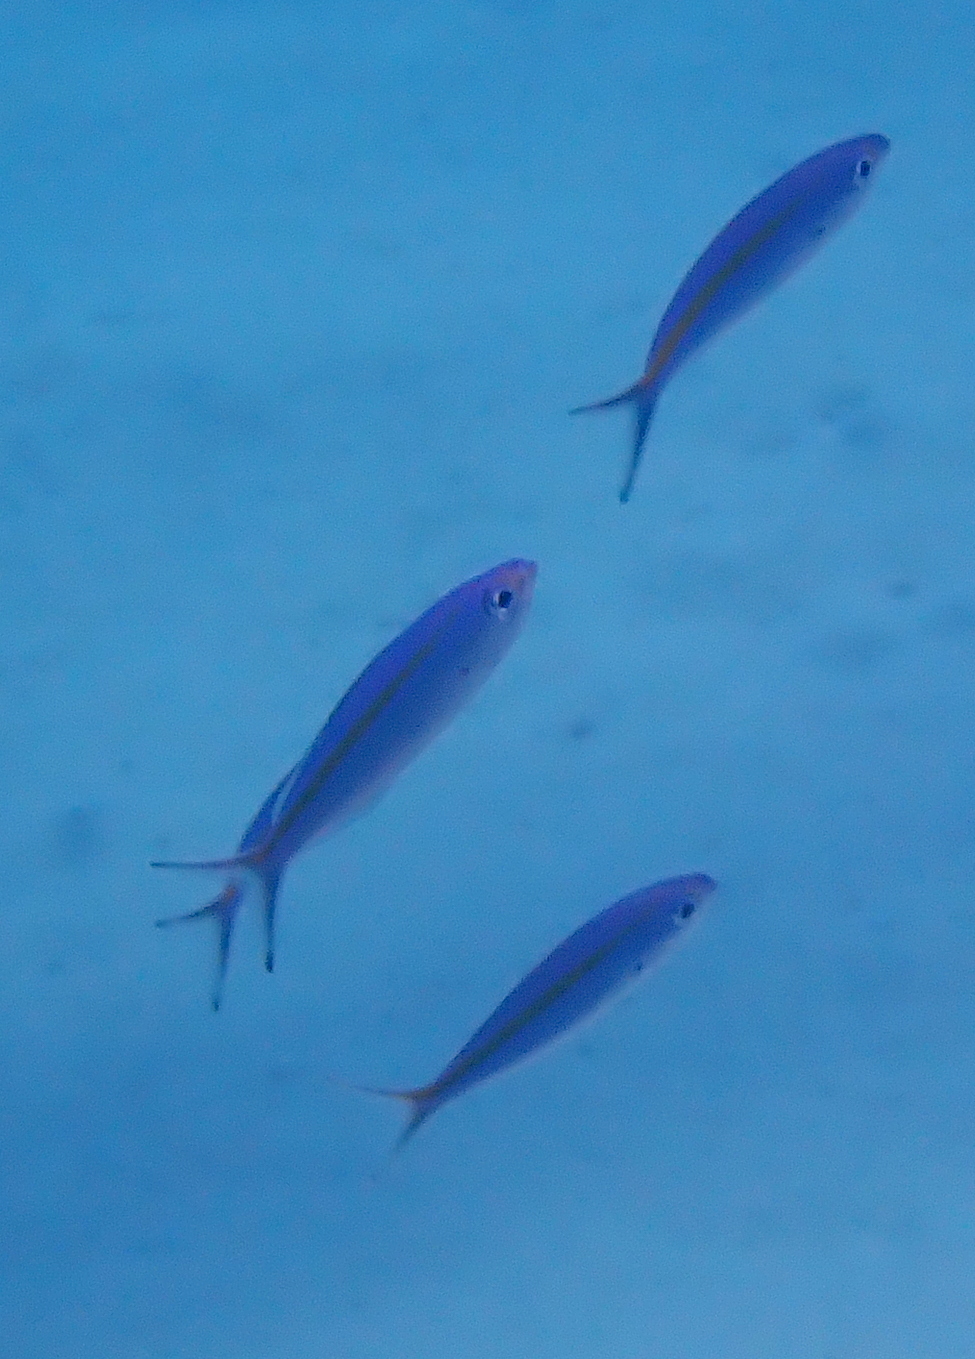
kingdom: Animalia
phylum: Chordata
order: Perciformes
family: Caesionidae
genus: Caesio
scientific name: Caesio caerulaurea
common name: Blue and gold fusilier
